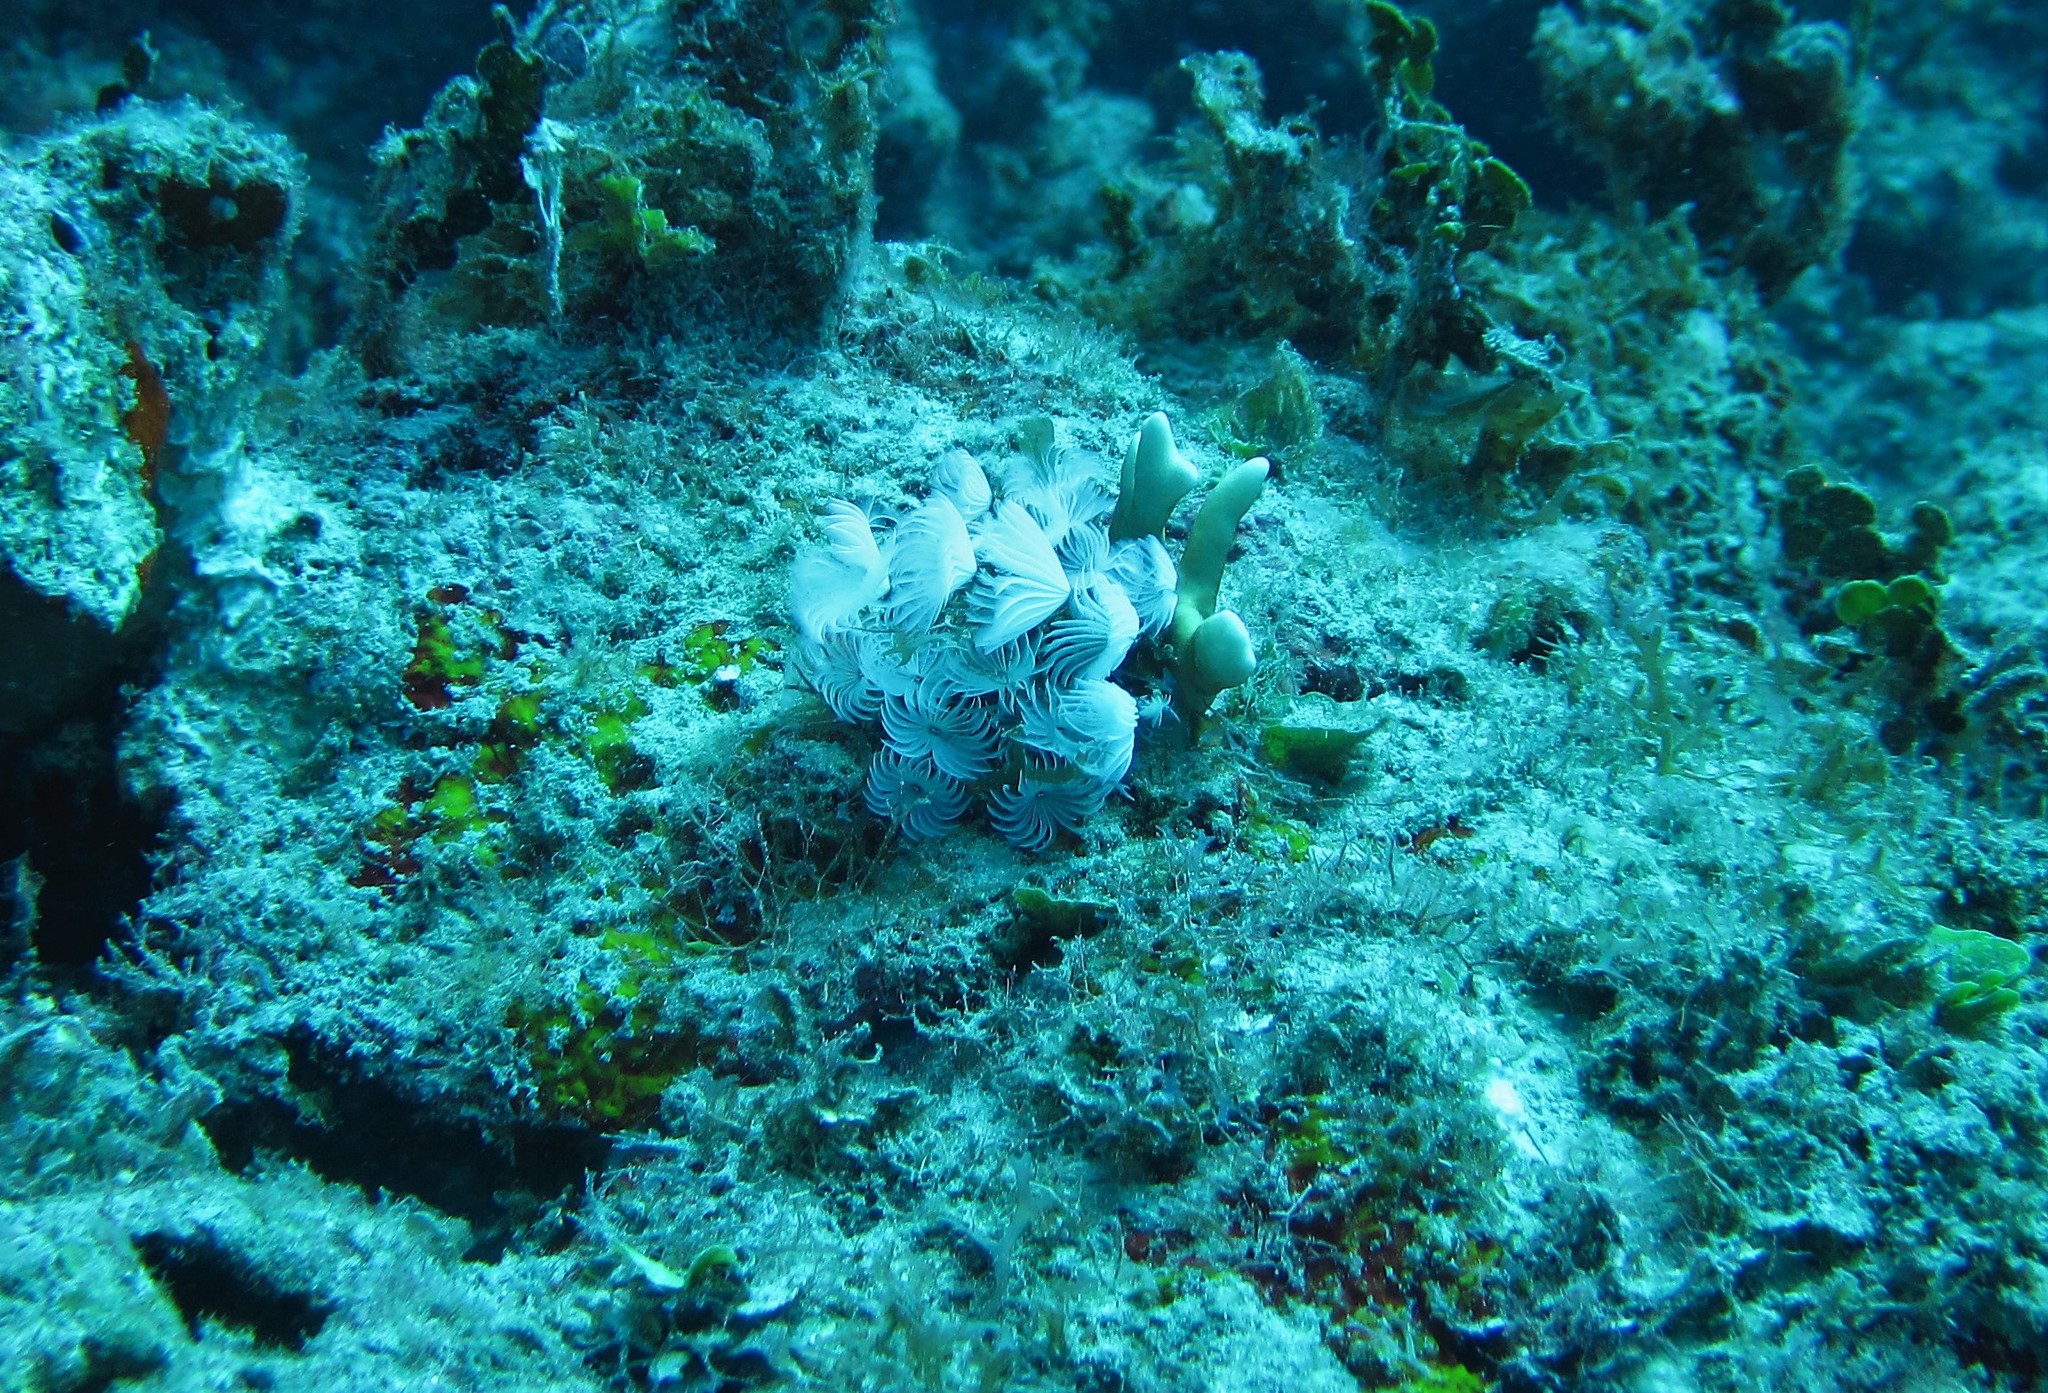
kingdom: Animalia
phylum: Annelida
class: Polychaeta
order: Sabellida
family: Sabellidae
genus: Bispira
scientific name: Bispira brunnea
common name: Social feather duster
